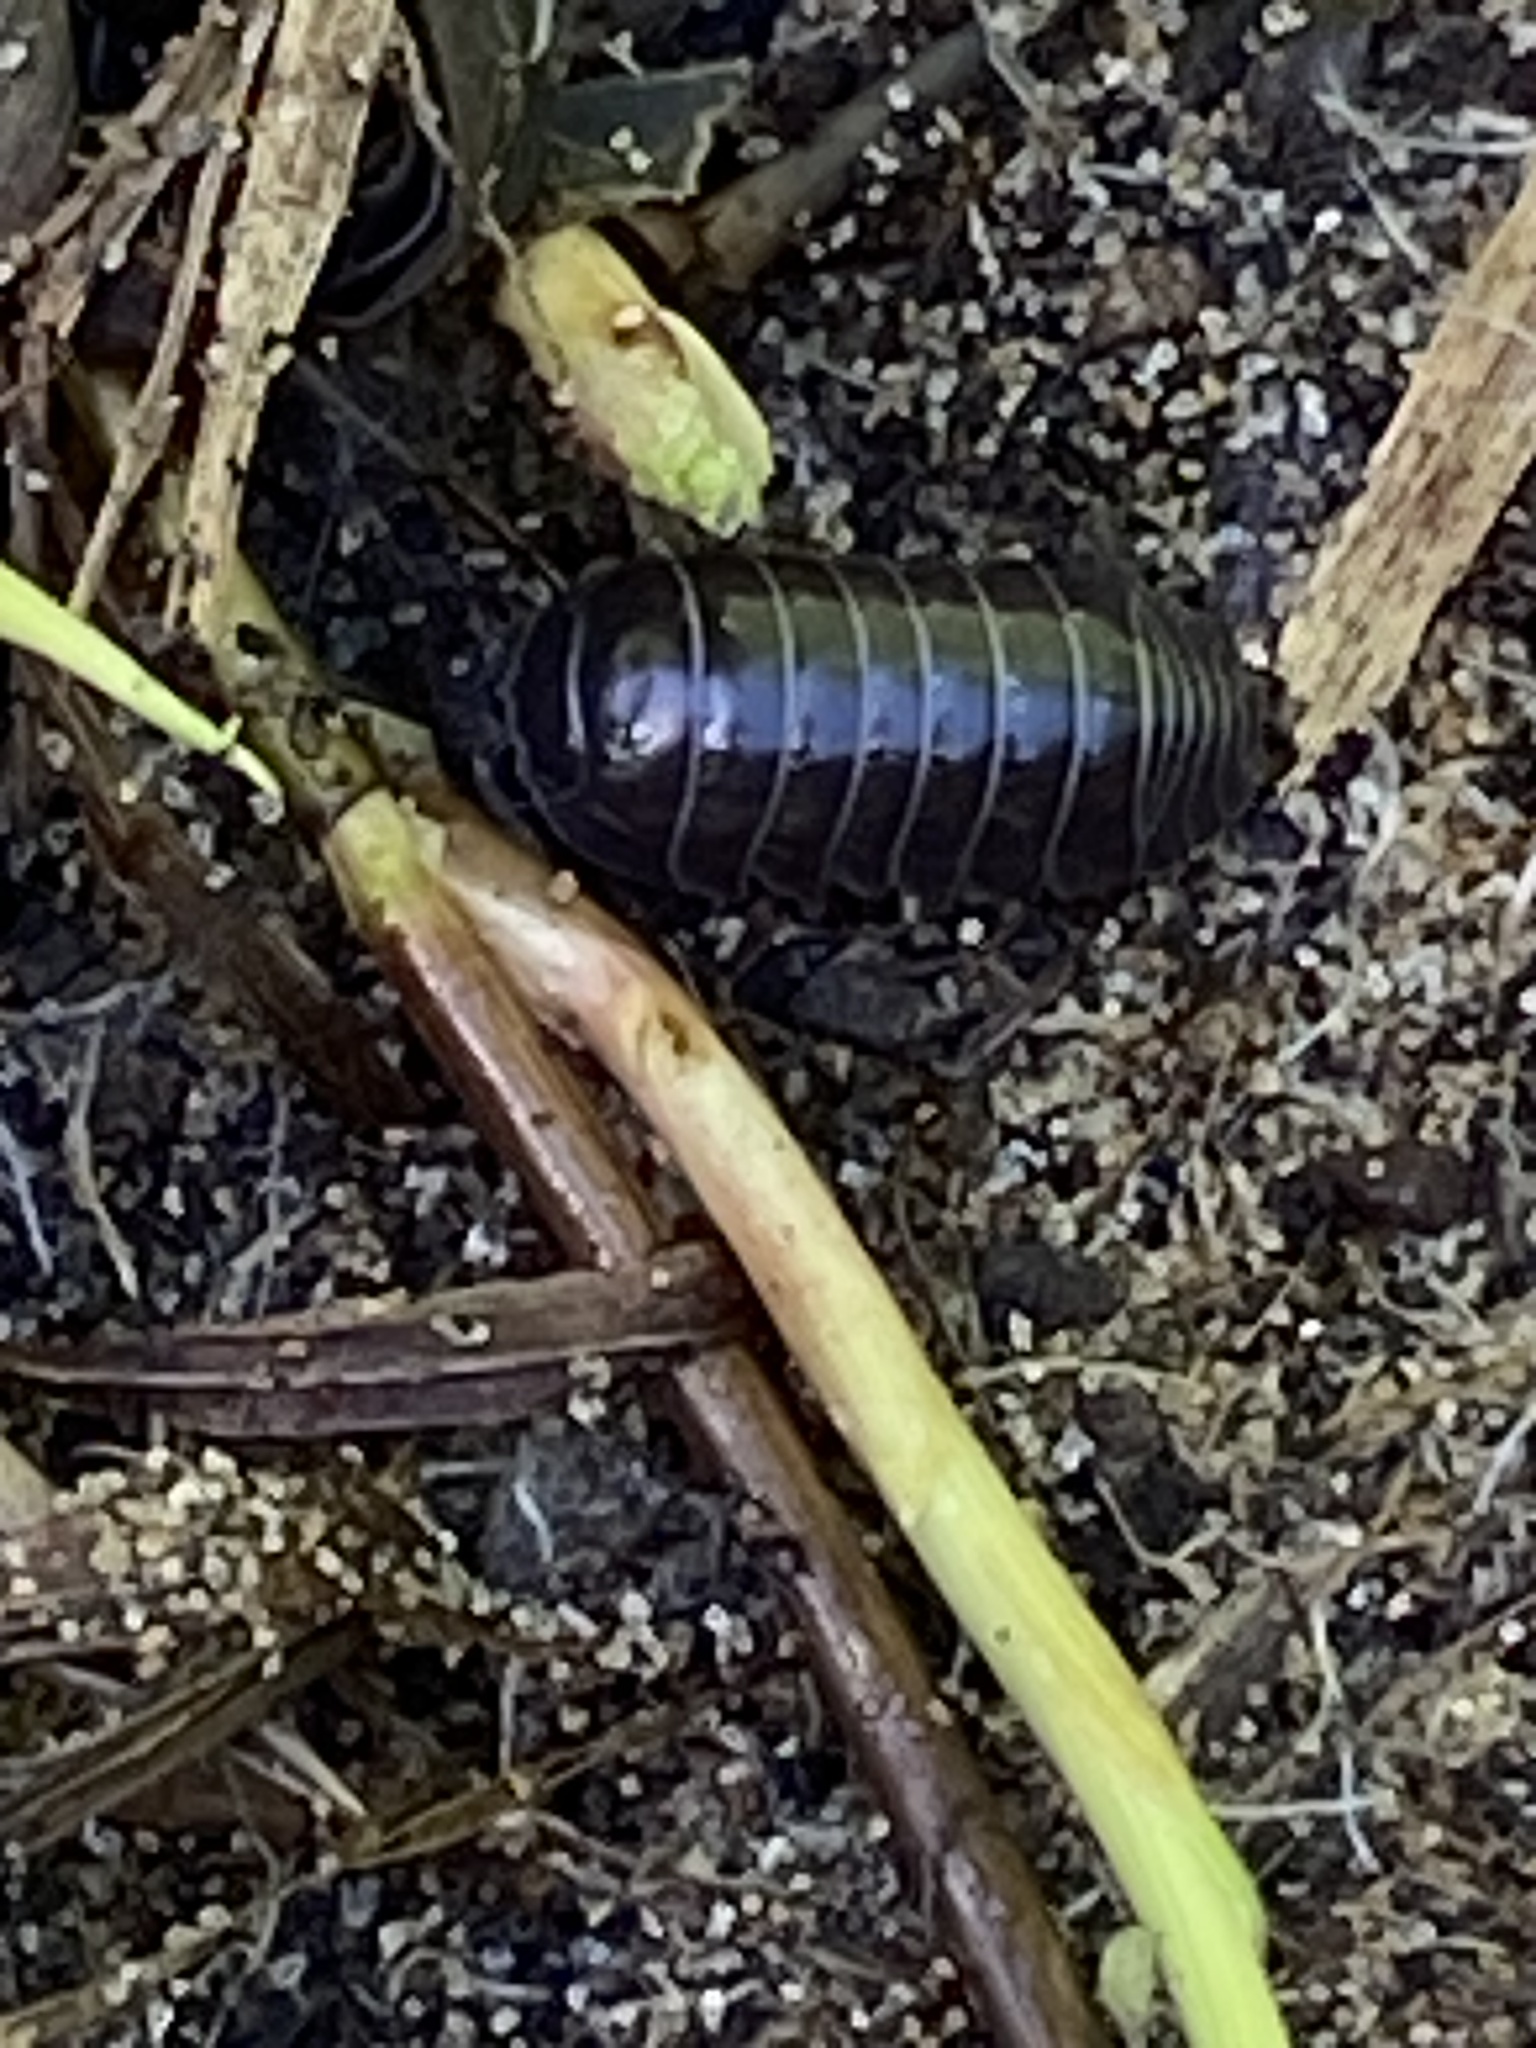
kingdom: Animalia
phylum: Arthropoda
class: Malacostraca
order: Isopoda
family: Armadillidiidae
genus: Armadillidium
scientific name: Armadillidium vulgare
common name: Common pill woodlouse
